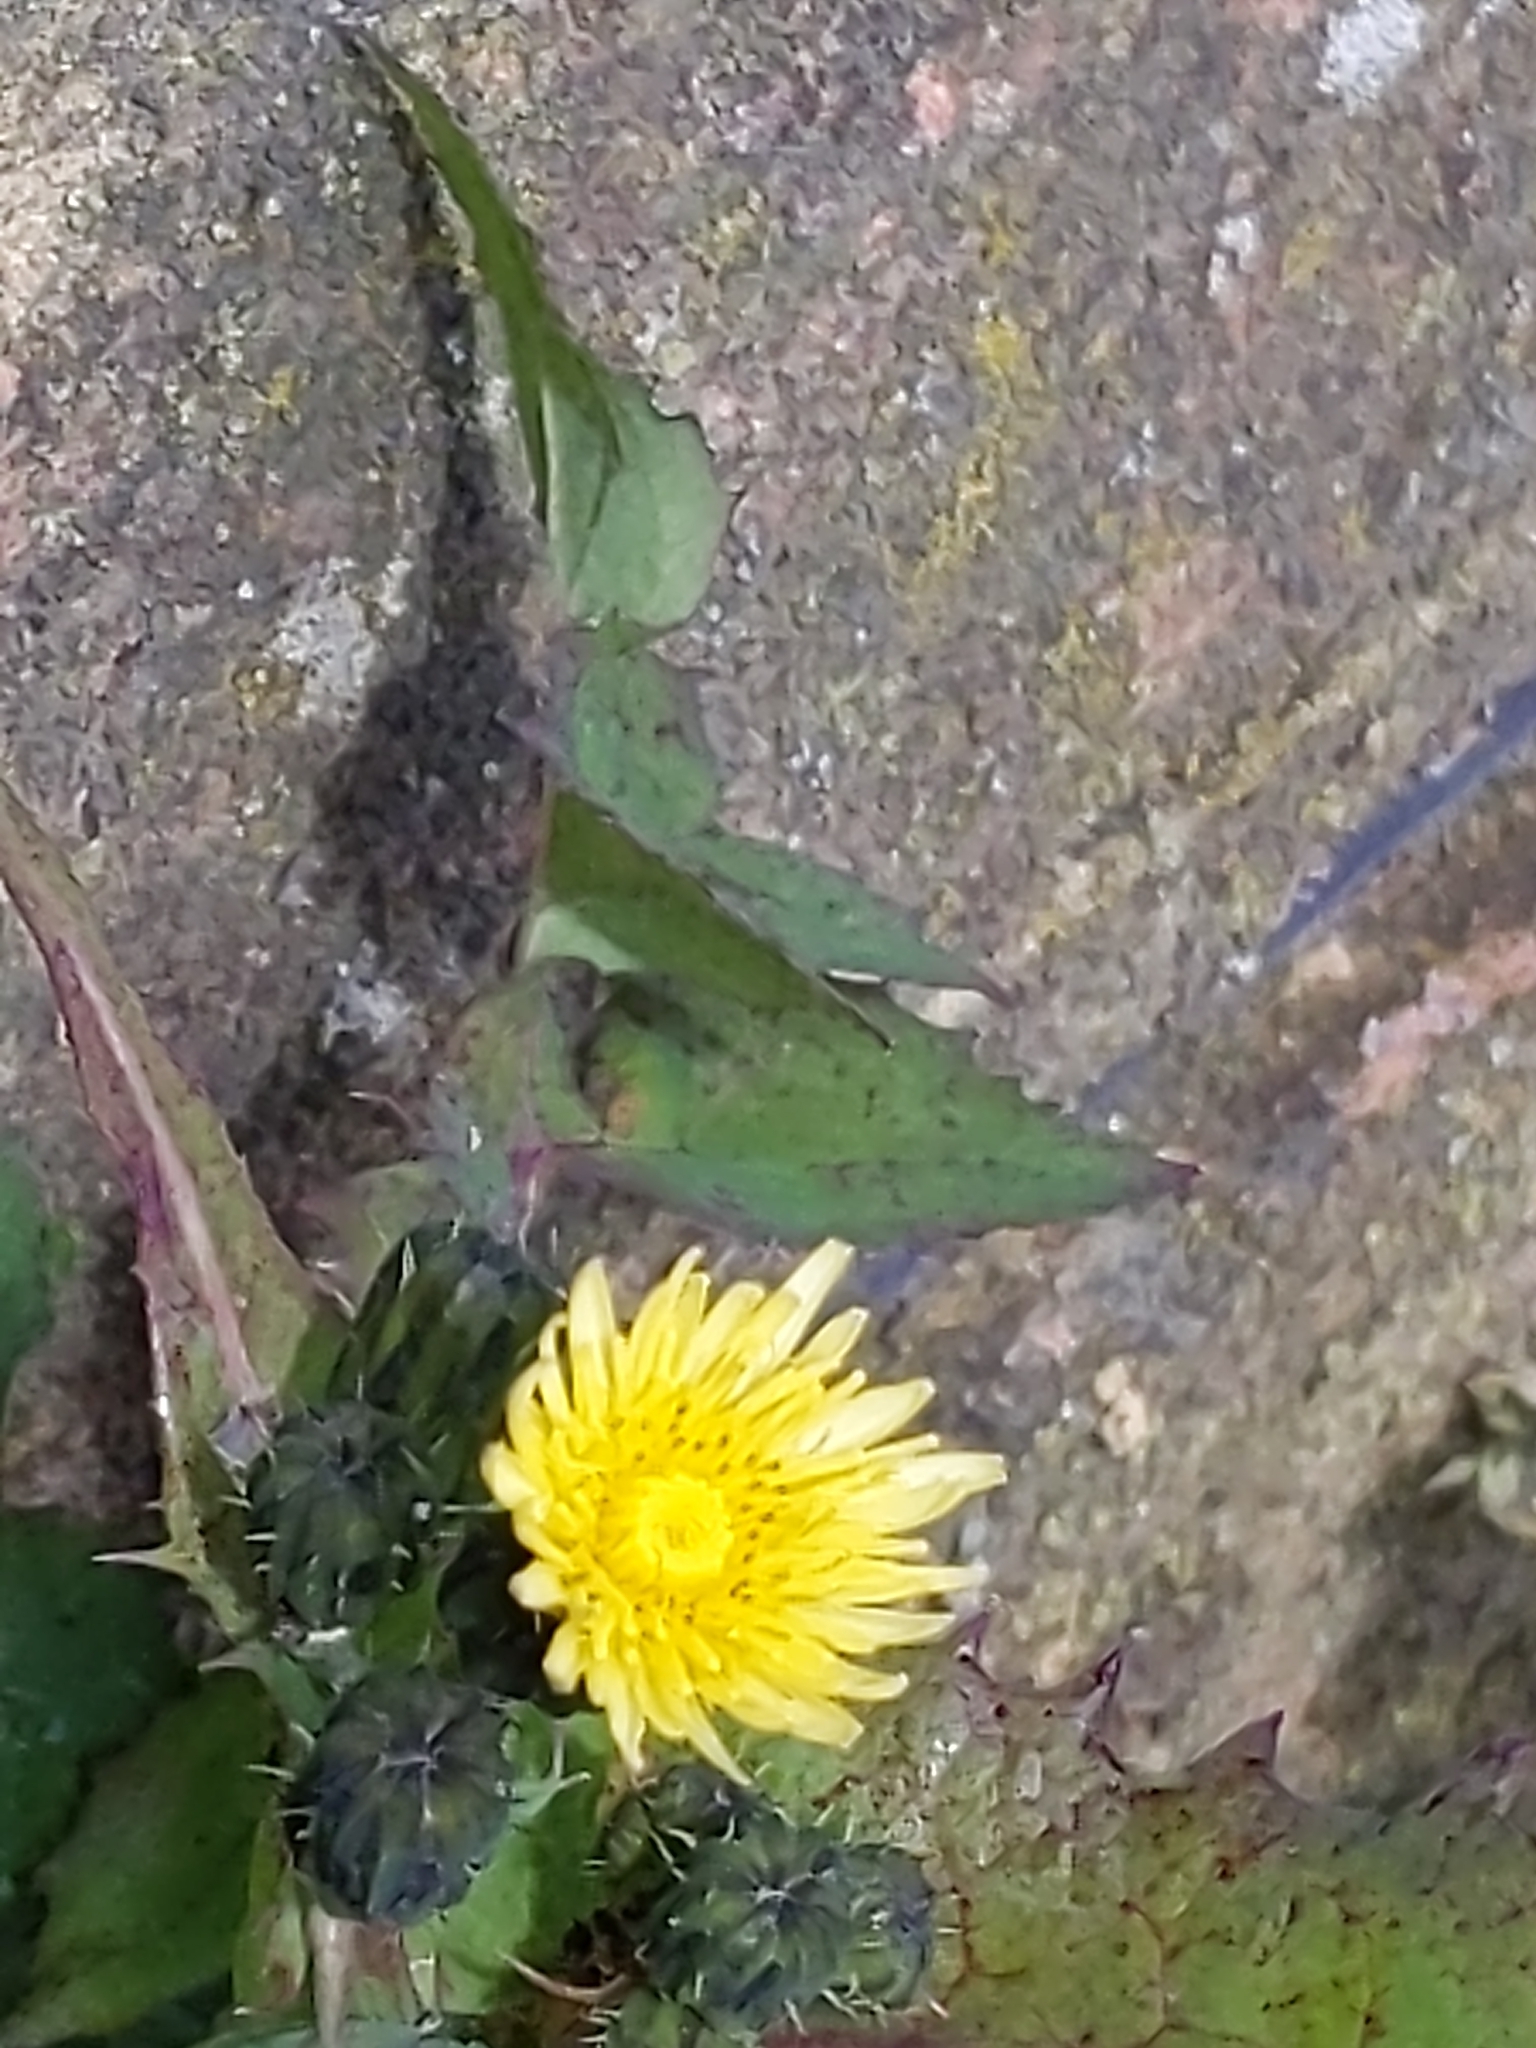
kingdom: Plantae
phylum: Tracheophyta
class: Magnoliopsida
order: Asterales
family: Asteraceae
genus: Sonchus
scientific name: Sonchus oleraceus
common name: Common sowthistle
